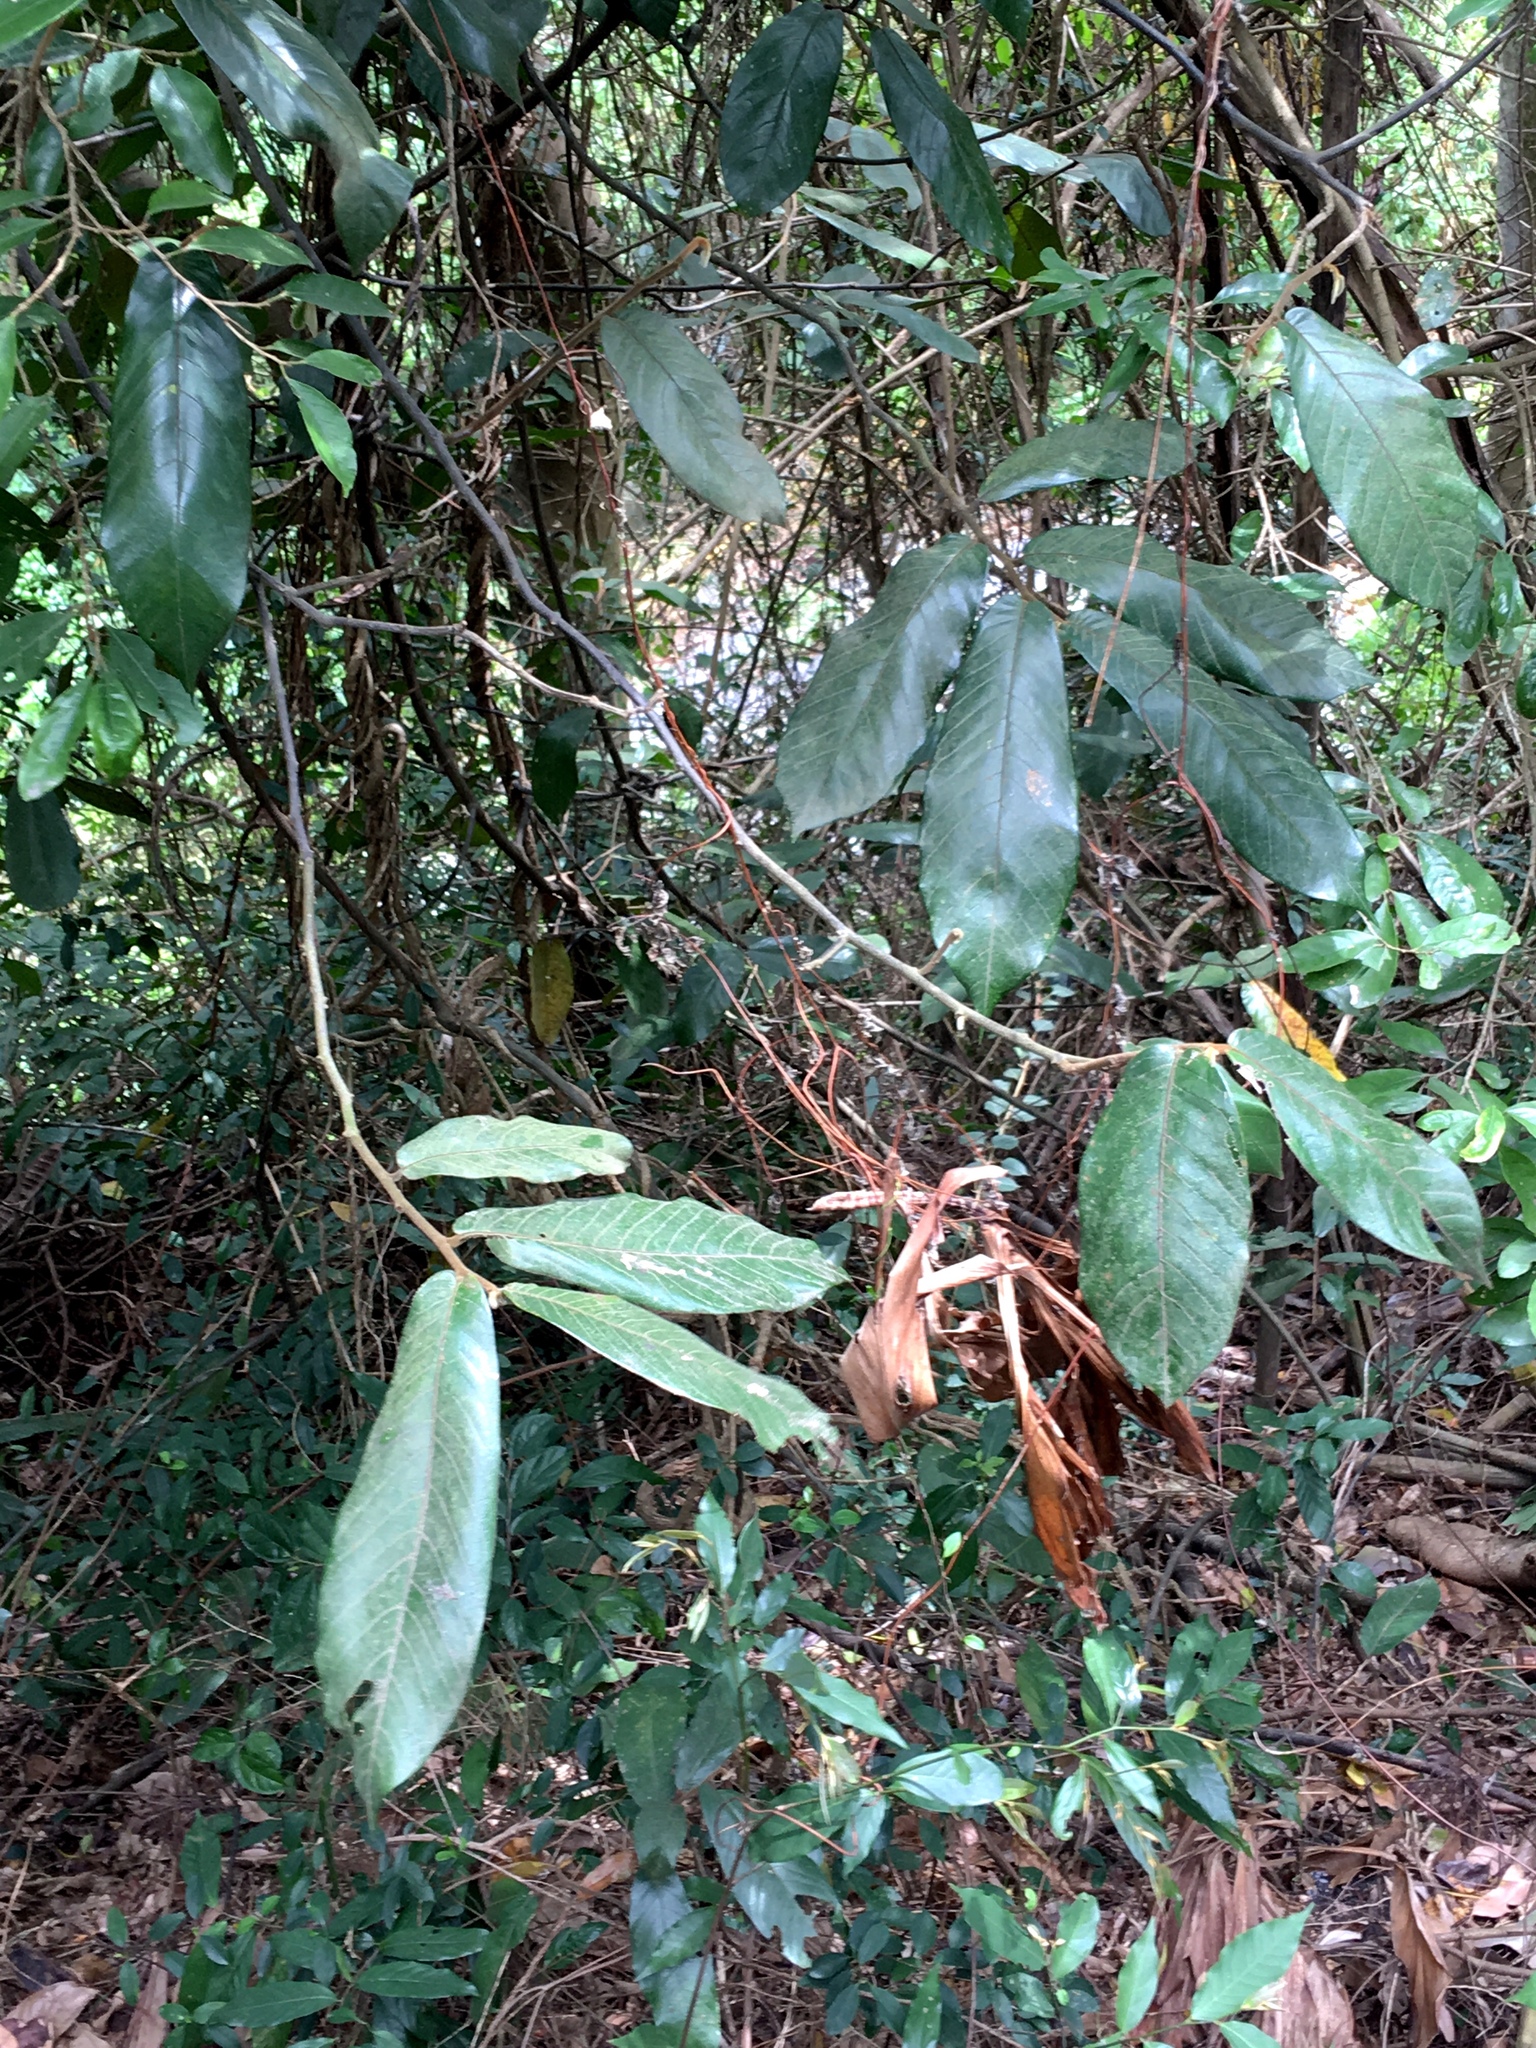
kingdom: Plantae
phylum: Tracheophyta
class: Magnoliopsida
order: Magnoliales
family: Annonaceae
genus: Fissistigma
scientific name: Fissistigma oldhamii
